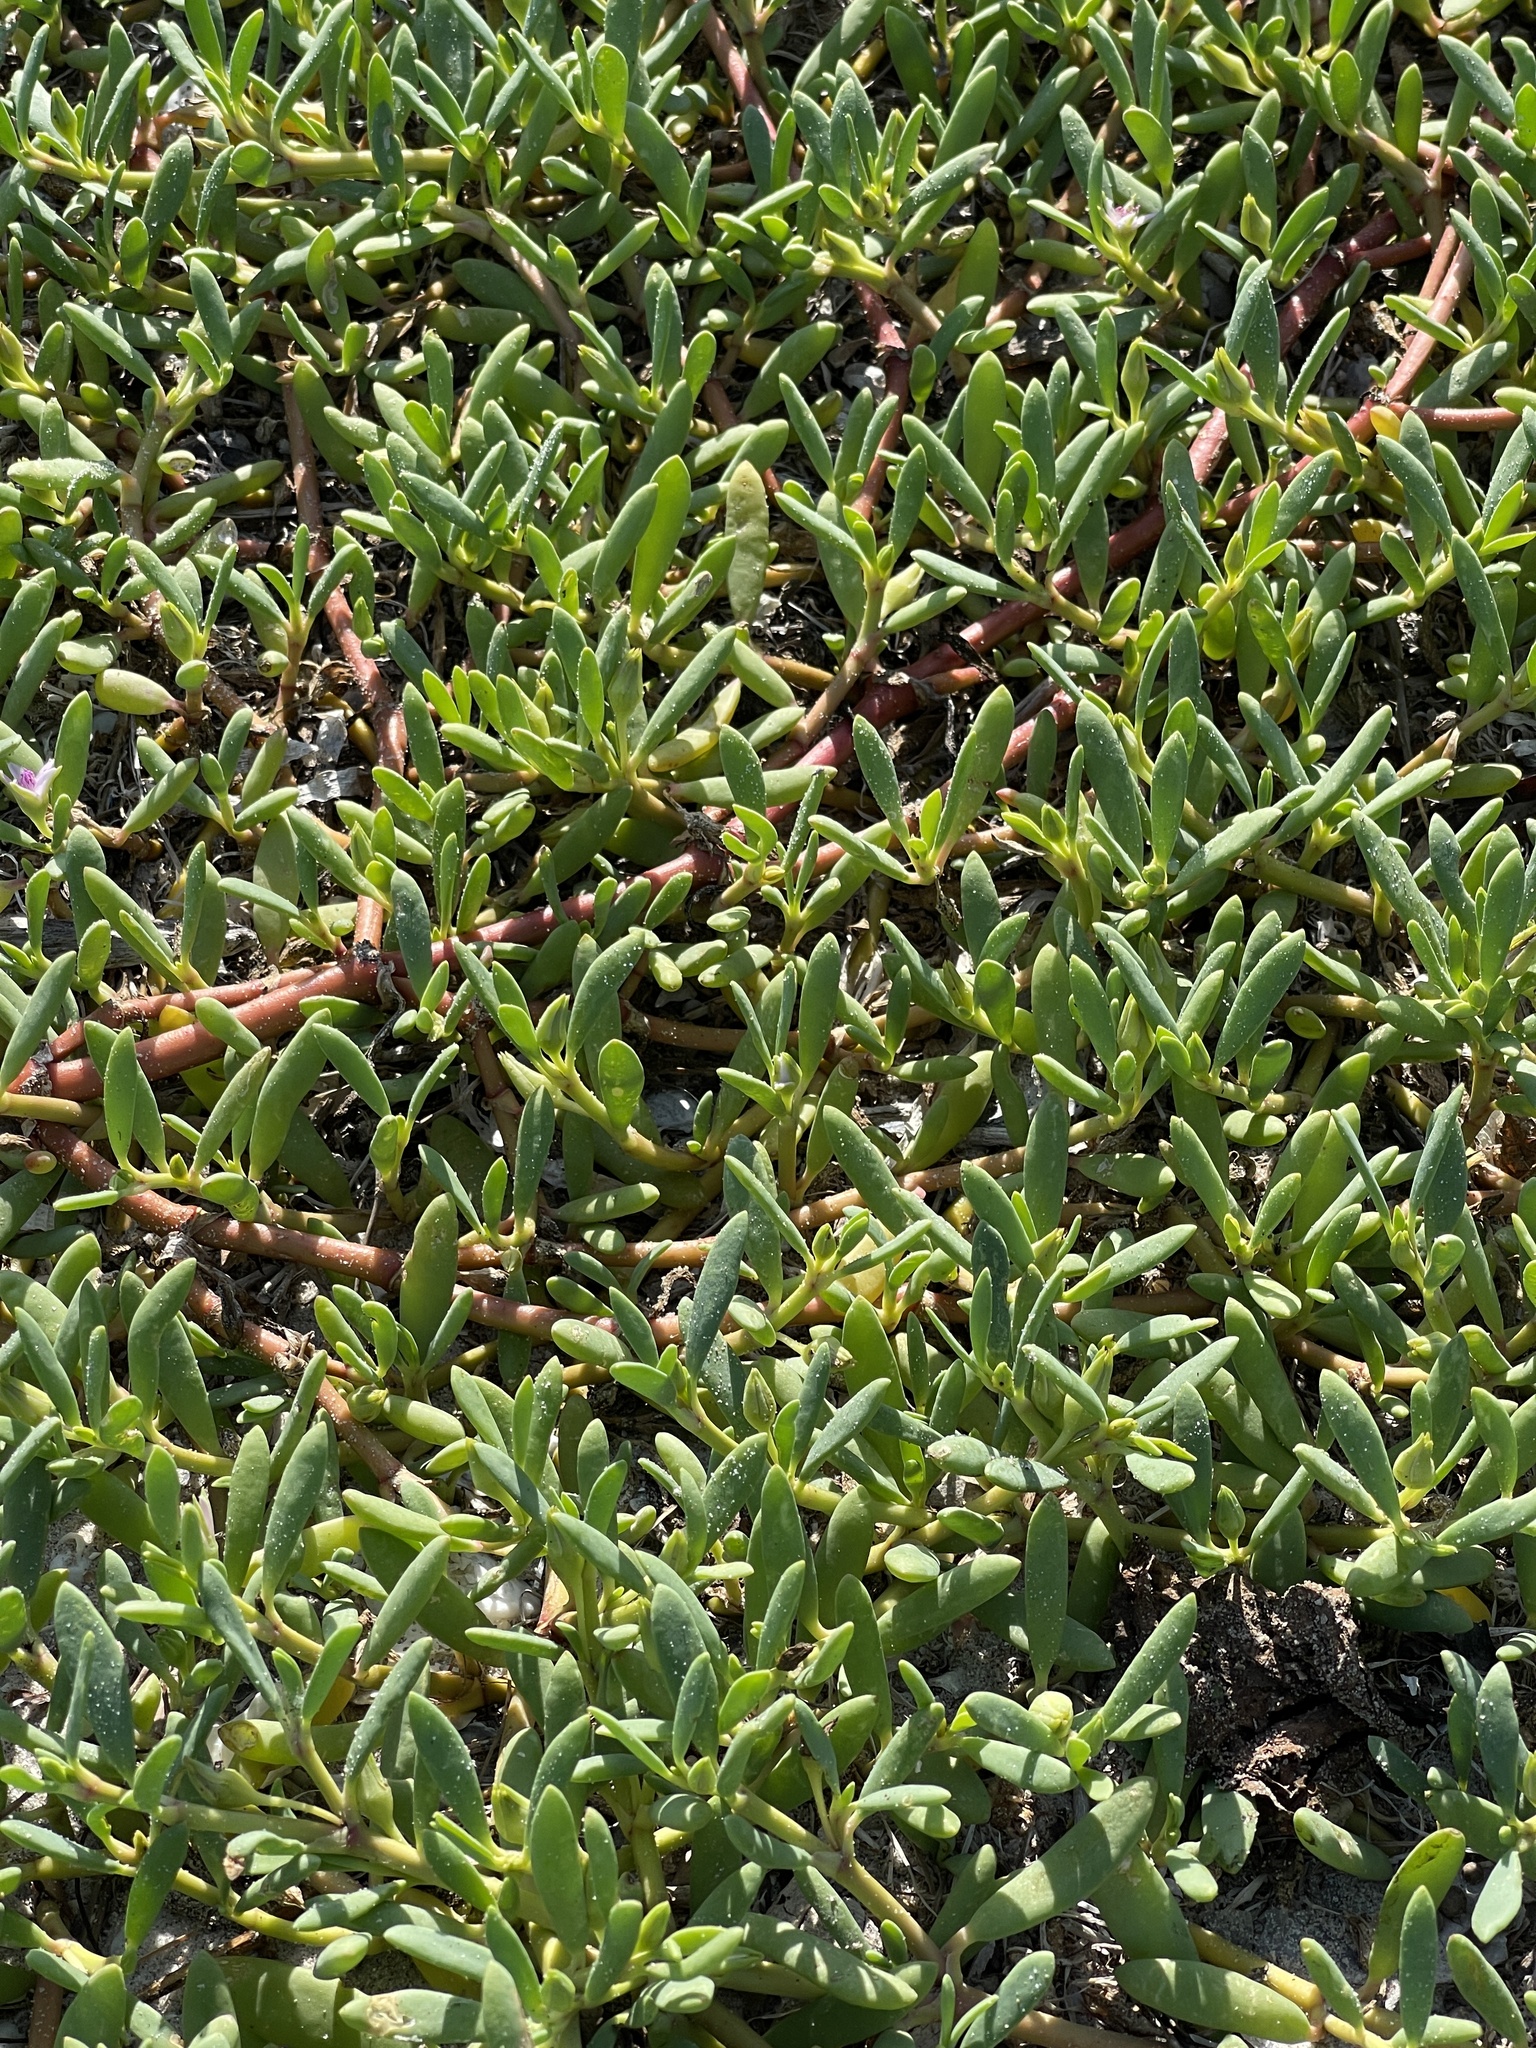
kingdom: Plantae
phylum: Tracheophyta
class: Magnoliopsida
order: Caryophyllales
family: Aizoaceae
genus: Sesuvium
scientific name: Sesuvium portulacastrum
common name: Sea-purslane
